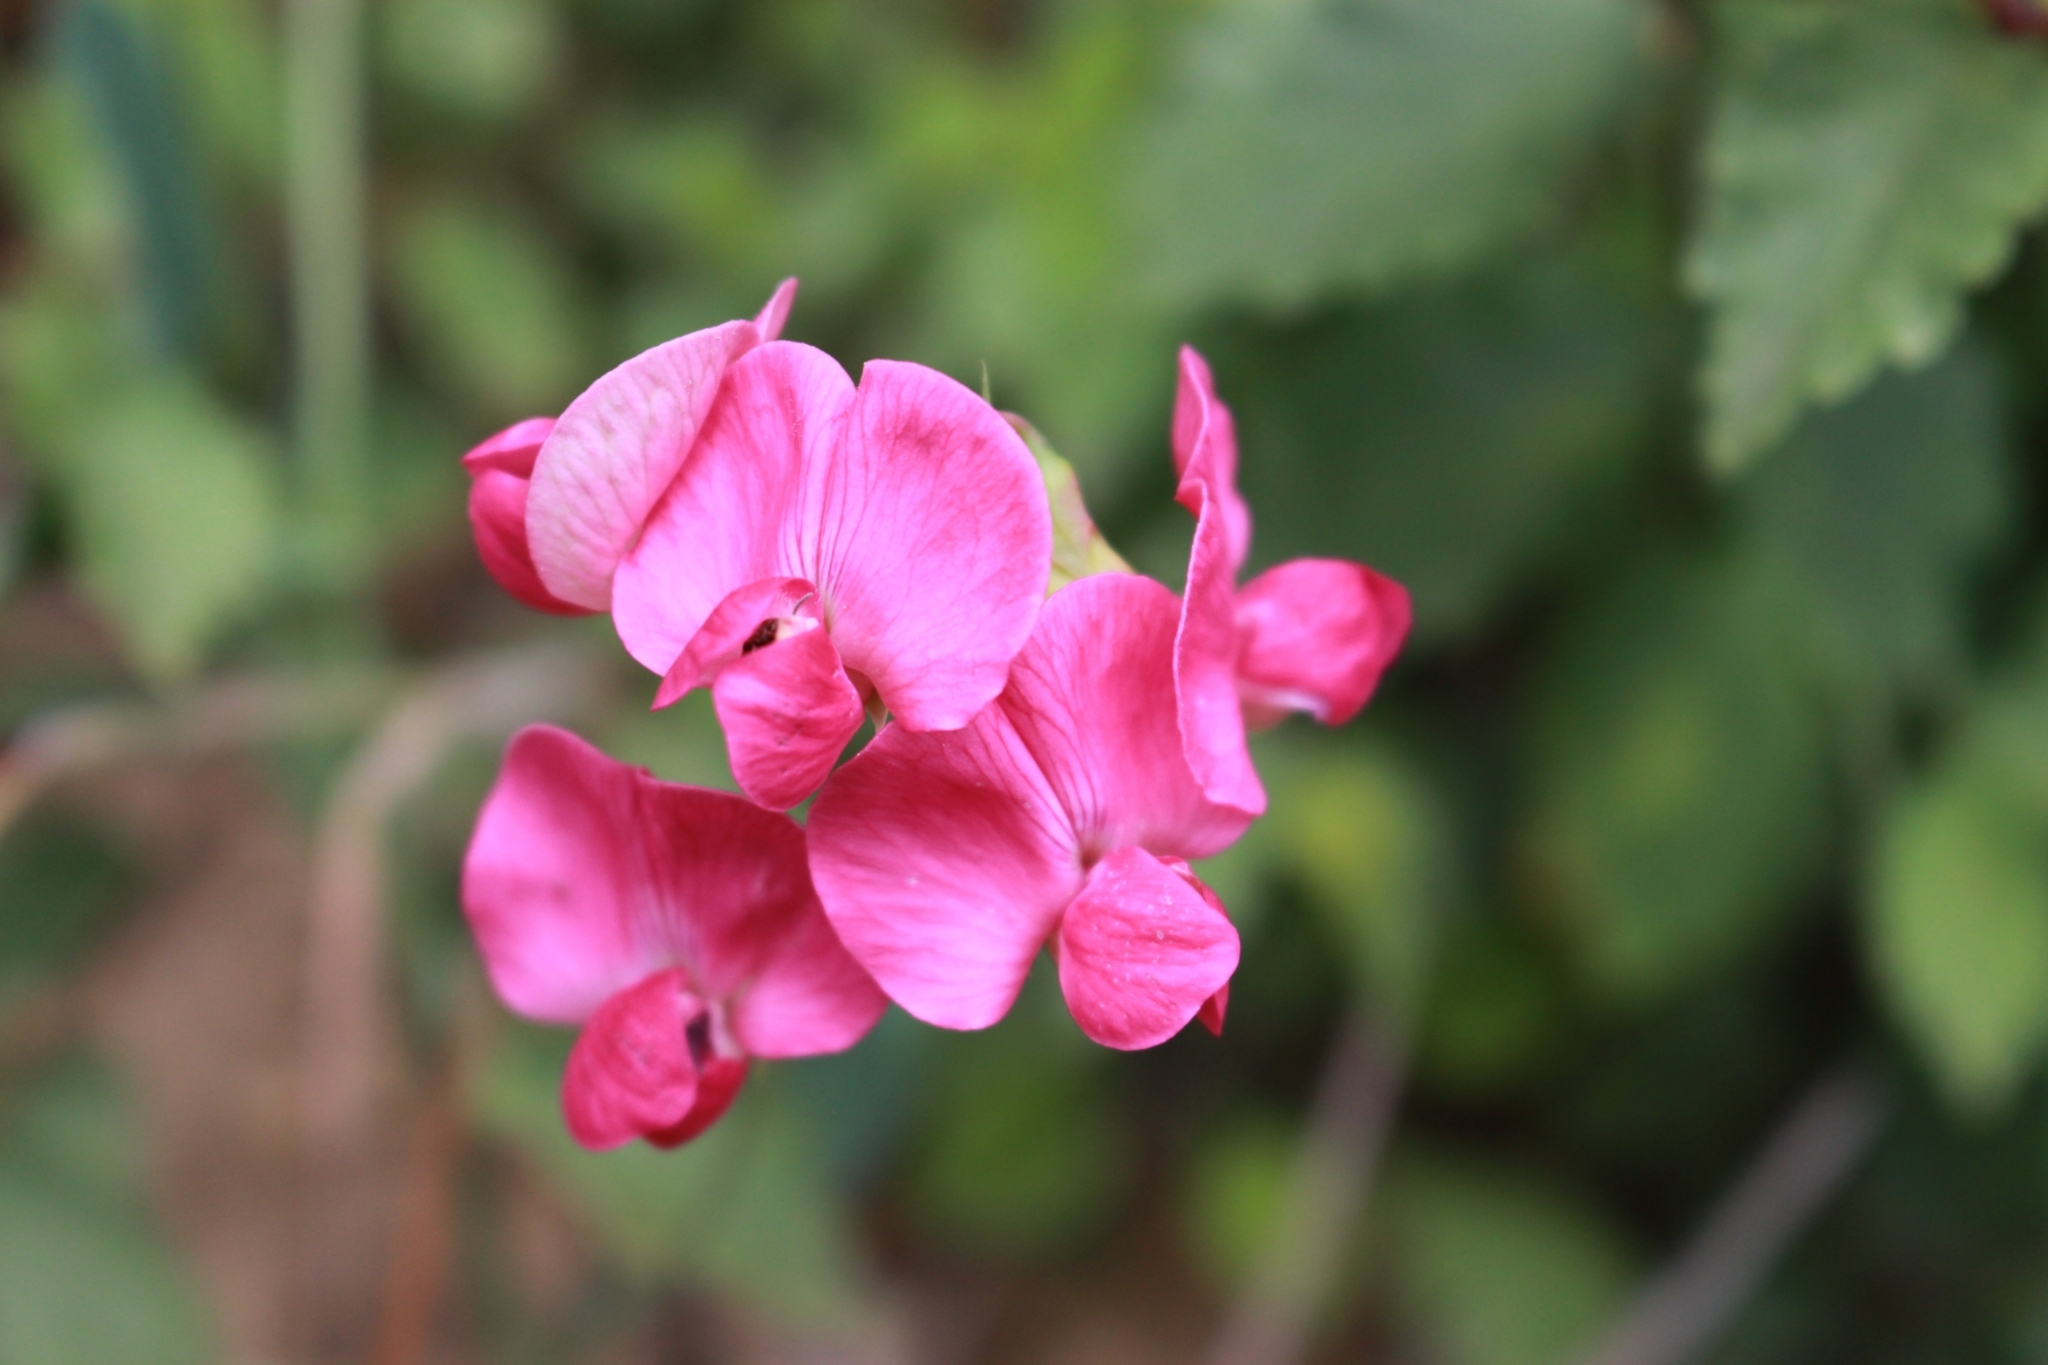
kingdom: Plantae
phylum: Tracheophyta
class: Magnoliopsida
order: Fabales
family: Fabaceae
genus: Lathyrus
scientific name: Lathyrus tuberosus
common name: Tuberous pea
